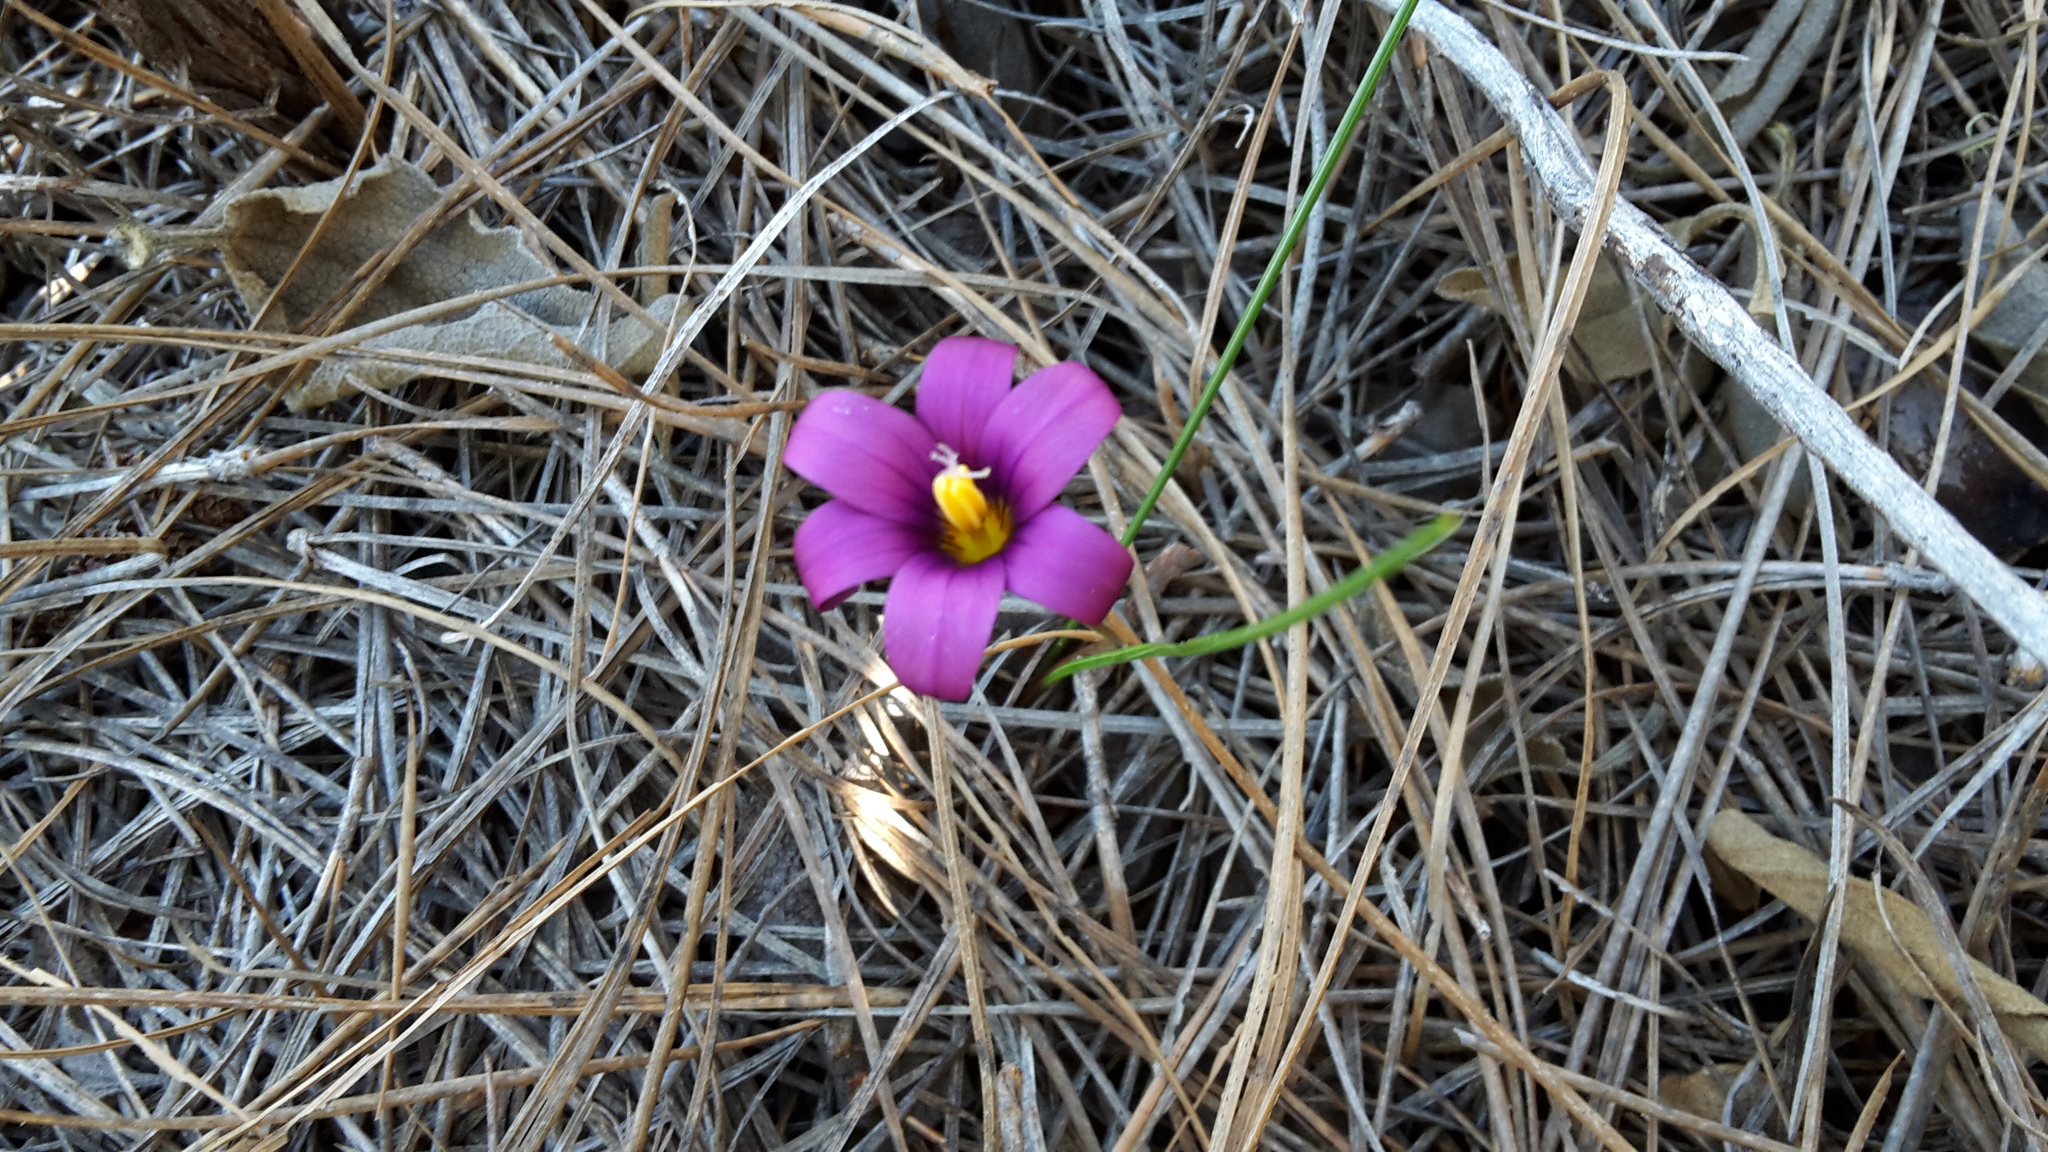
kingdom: Plantae
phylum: Tracheophyta
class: Liliopsida
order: Asparagales
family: Iridaceae
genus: Romulea
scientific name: Romulea columnae
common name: Sand-crocus
